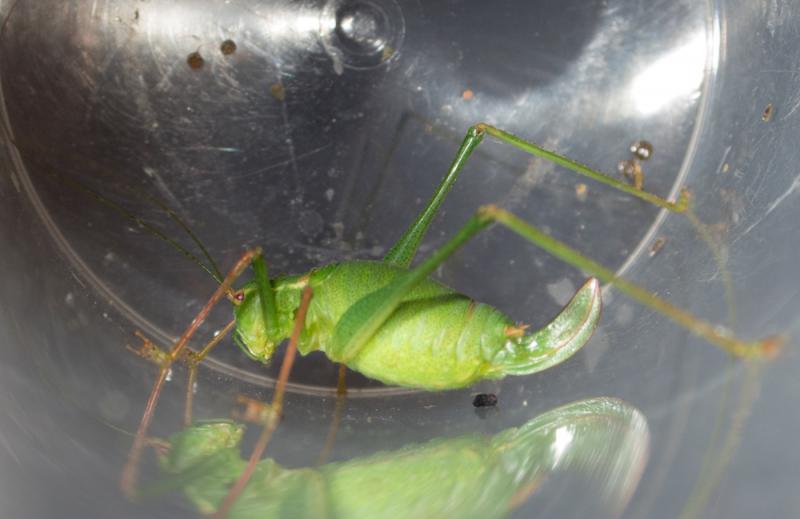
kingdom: Animalia
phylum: Arthropoda
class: Insecta
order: Orthoptera
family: Tettigoniidae
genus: Leptophyes
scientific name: Leptophyes punctatissima
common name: Speckled bush-cricket
